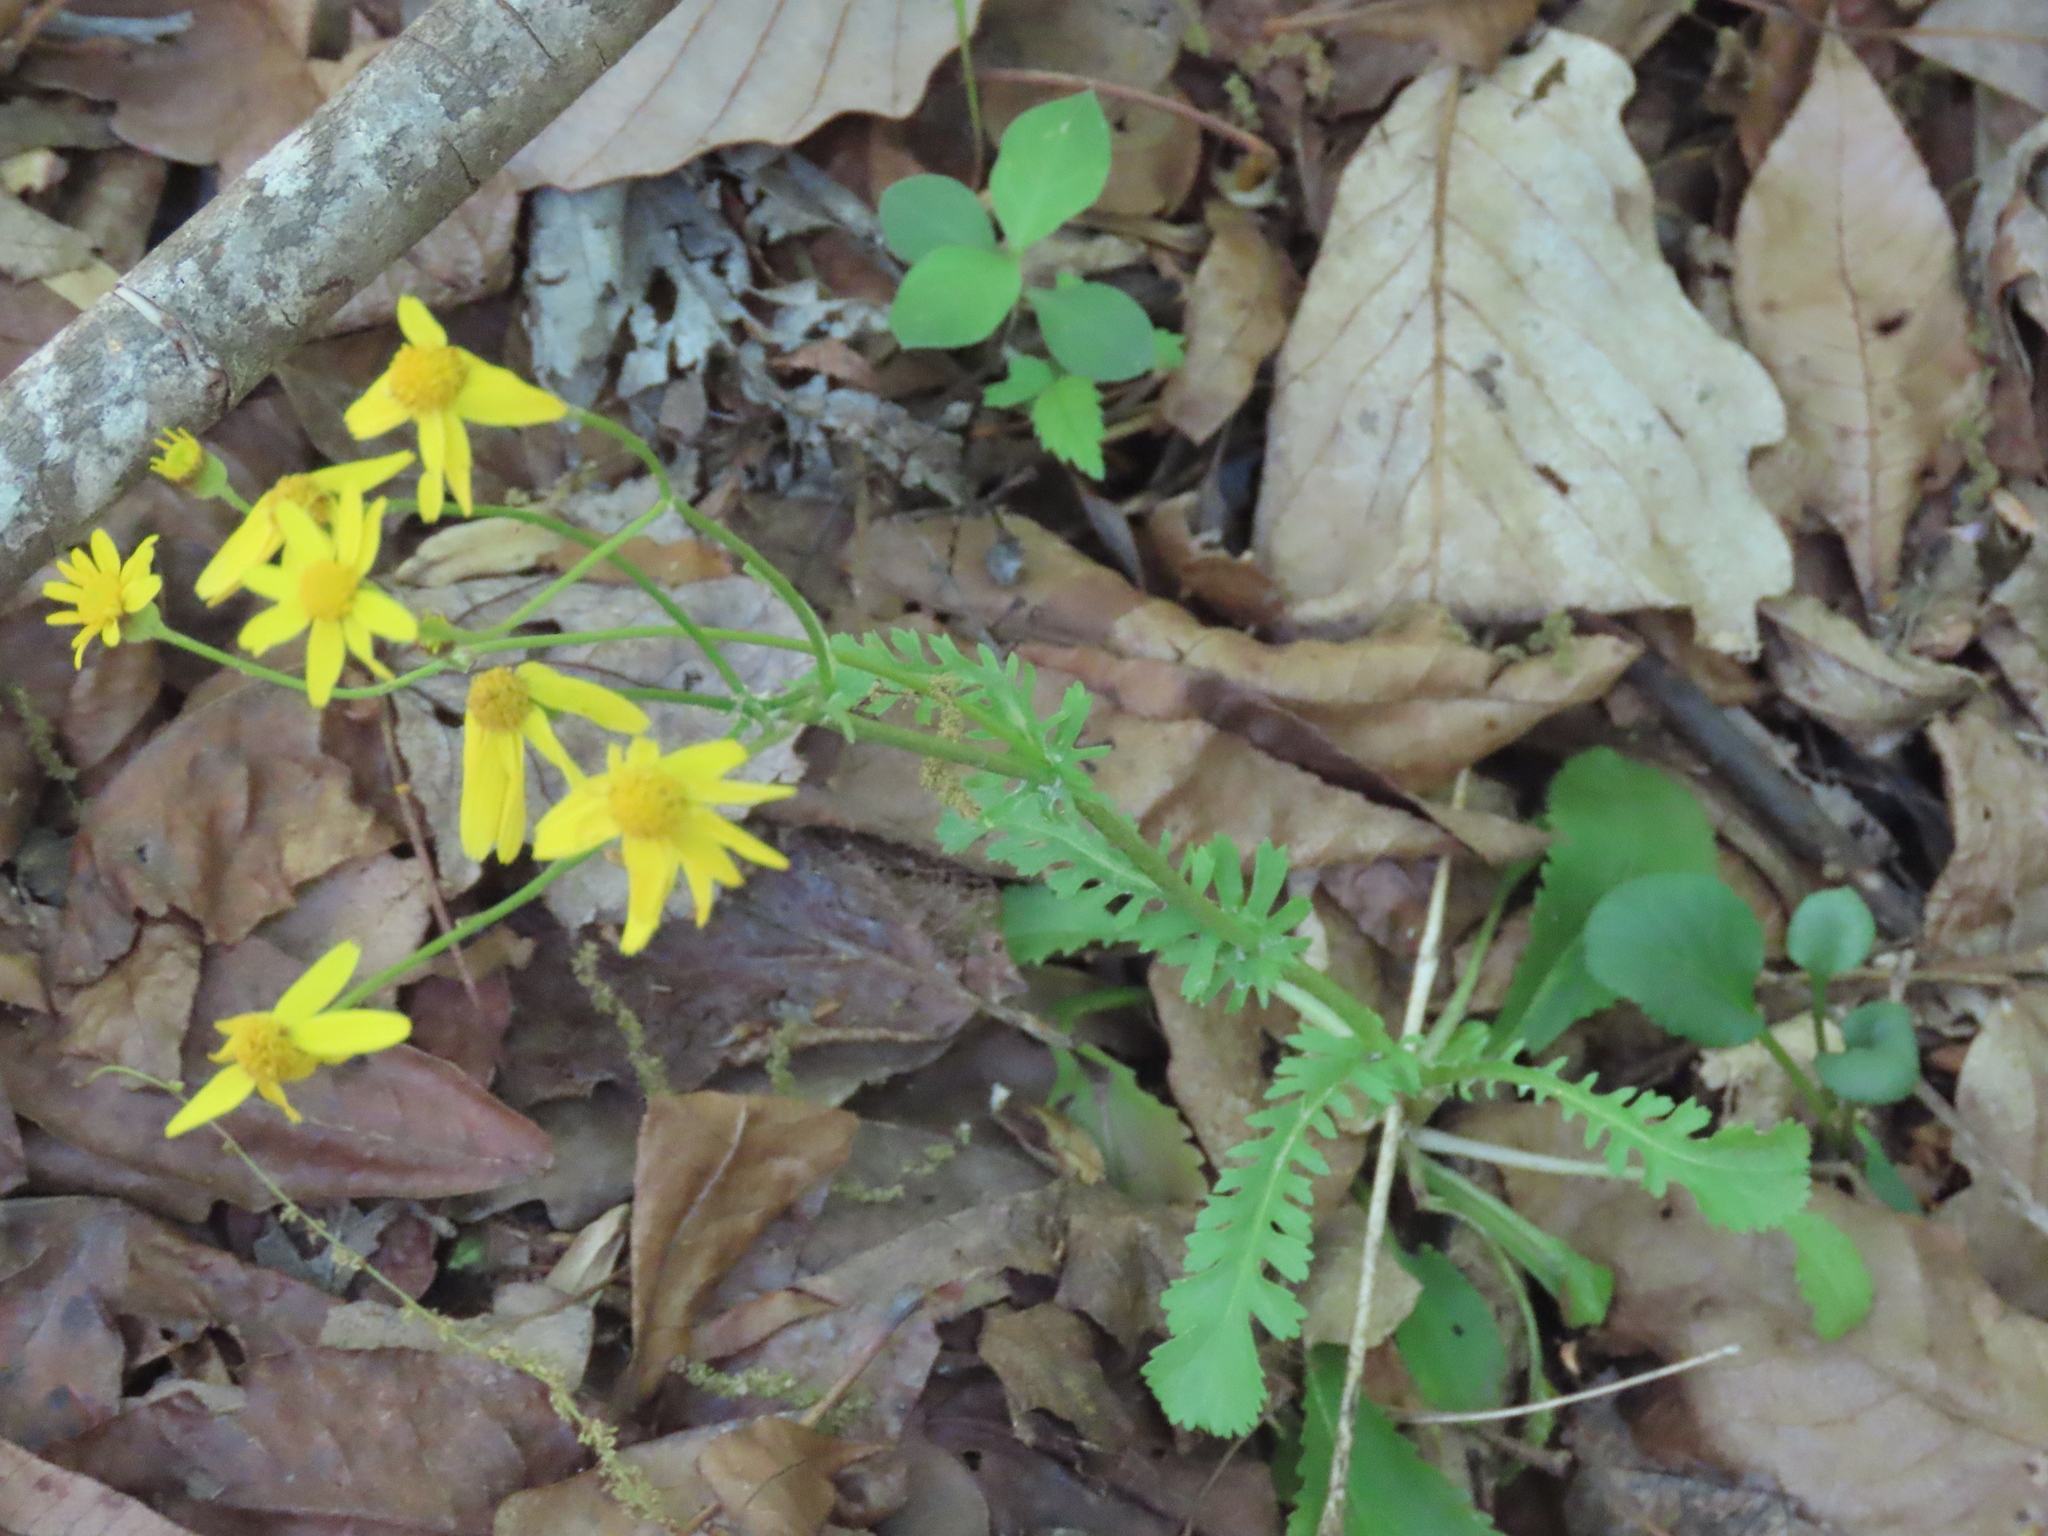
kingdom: Plantae
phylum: Tracheophyta
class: Magnoliopsida
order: Asterales
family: Asteraceae
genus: Packera
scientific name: Packera obovata
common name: Round-leaf ragwort
